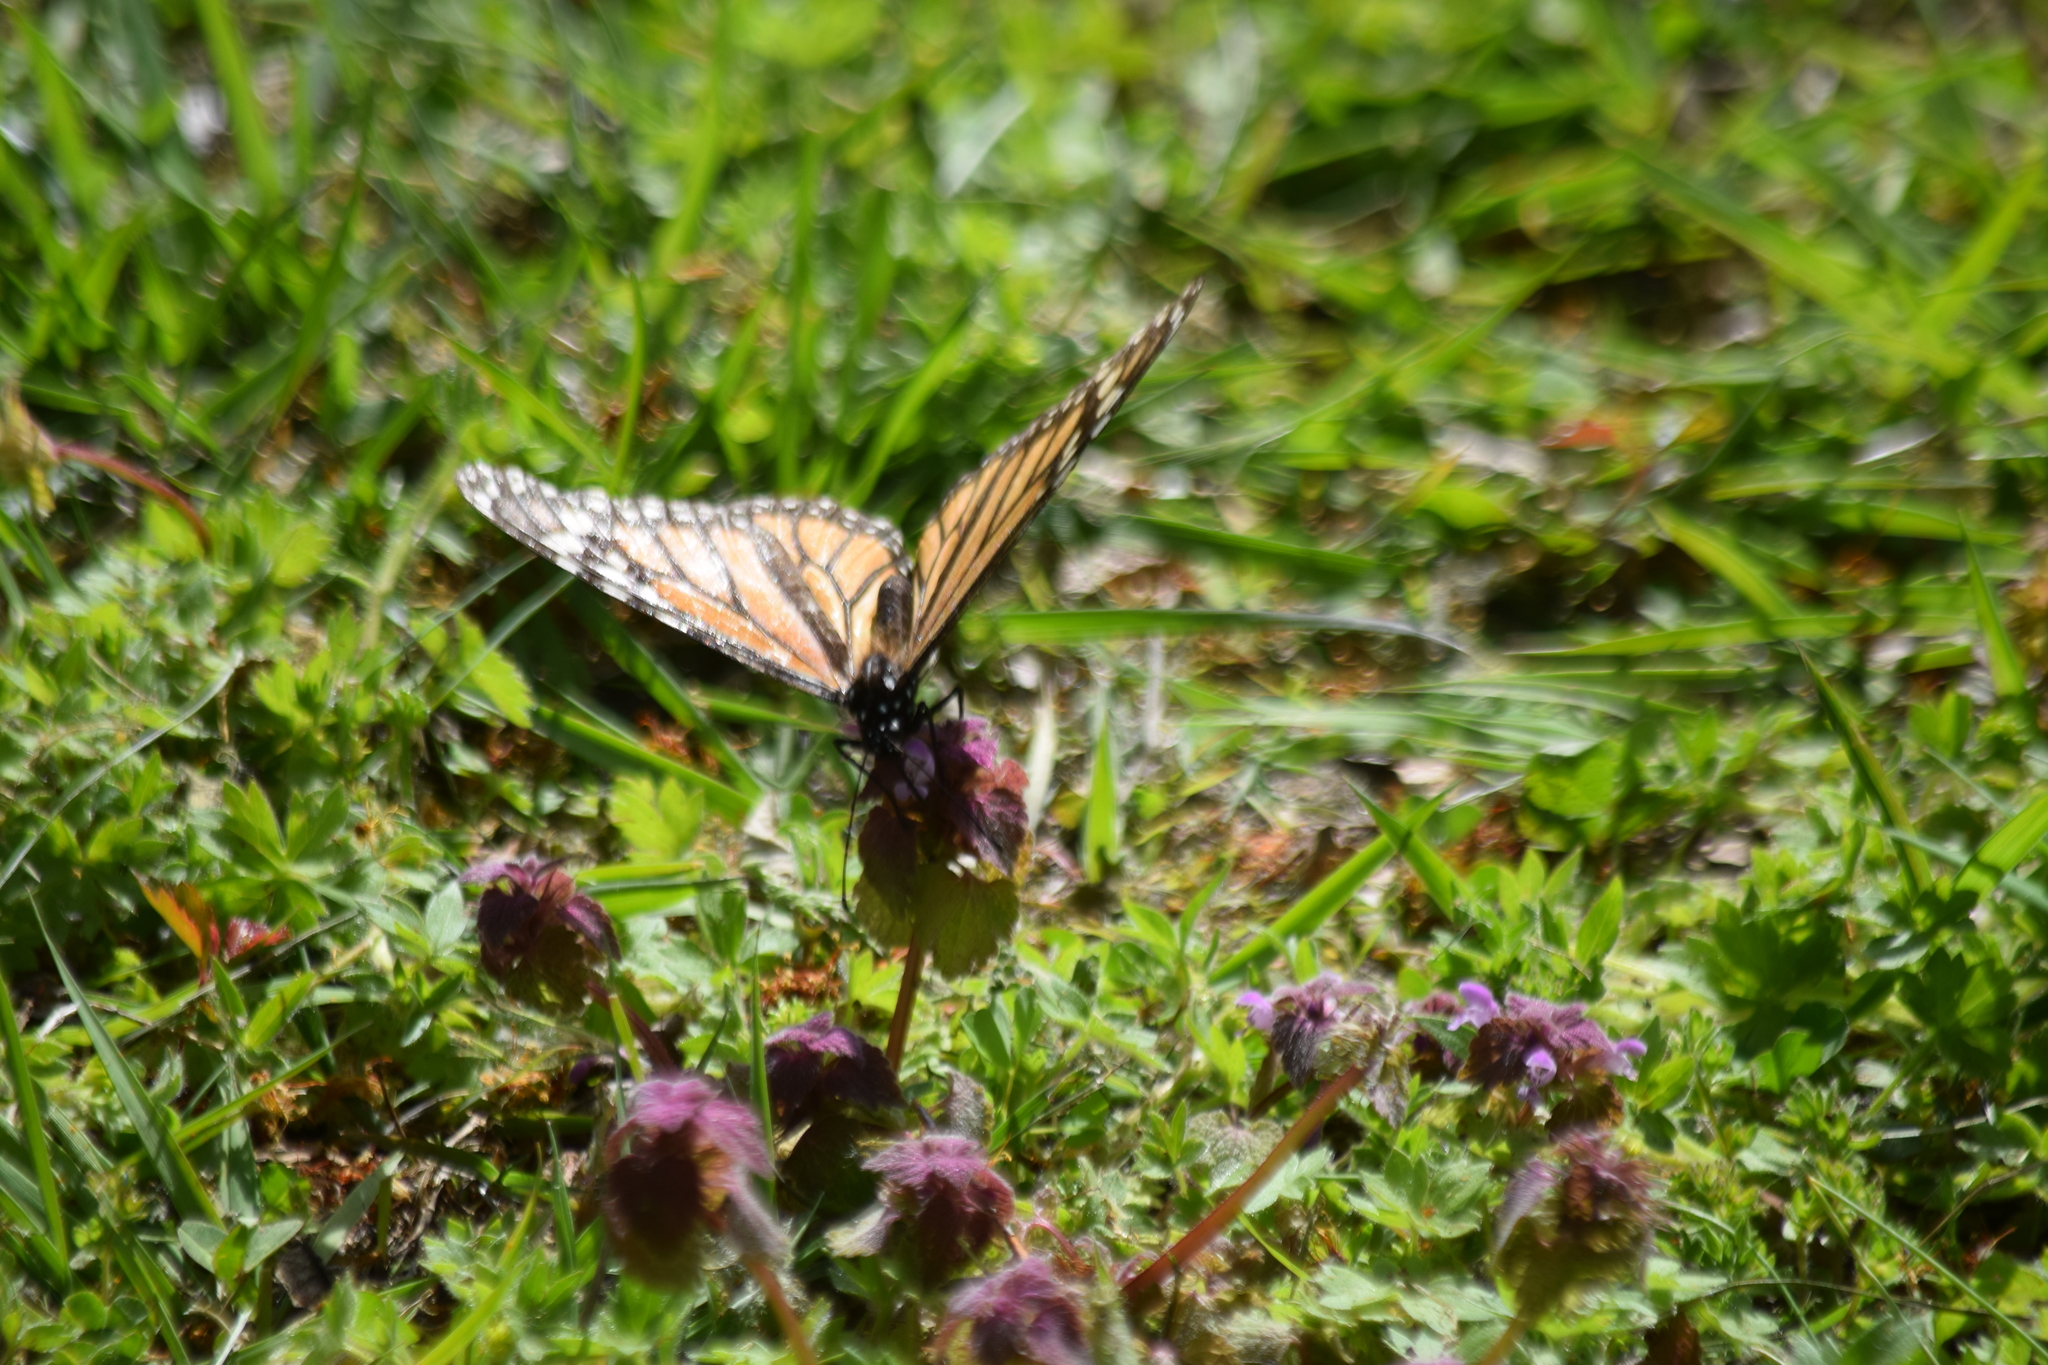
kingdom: Animalia
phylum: Arthropoda
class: Insecta
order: Lepidoptera
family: Nymphalidae
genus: Danaus
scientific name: Danaus plexippus
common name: Monarch
